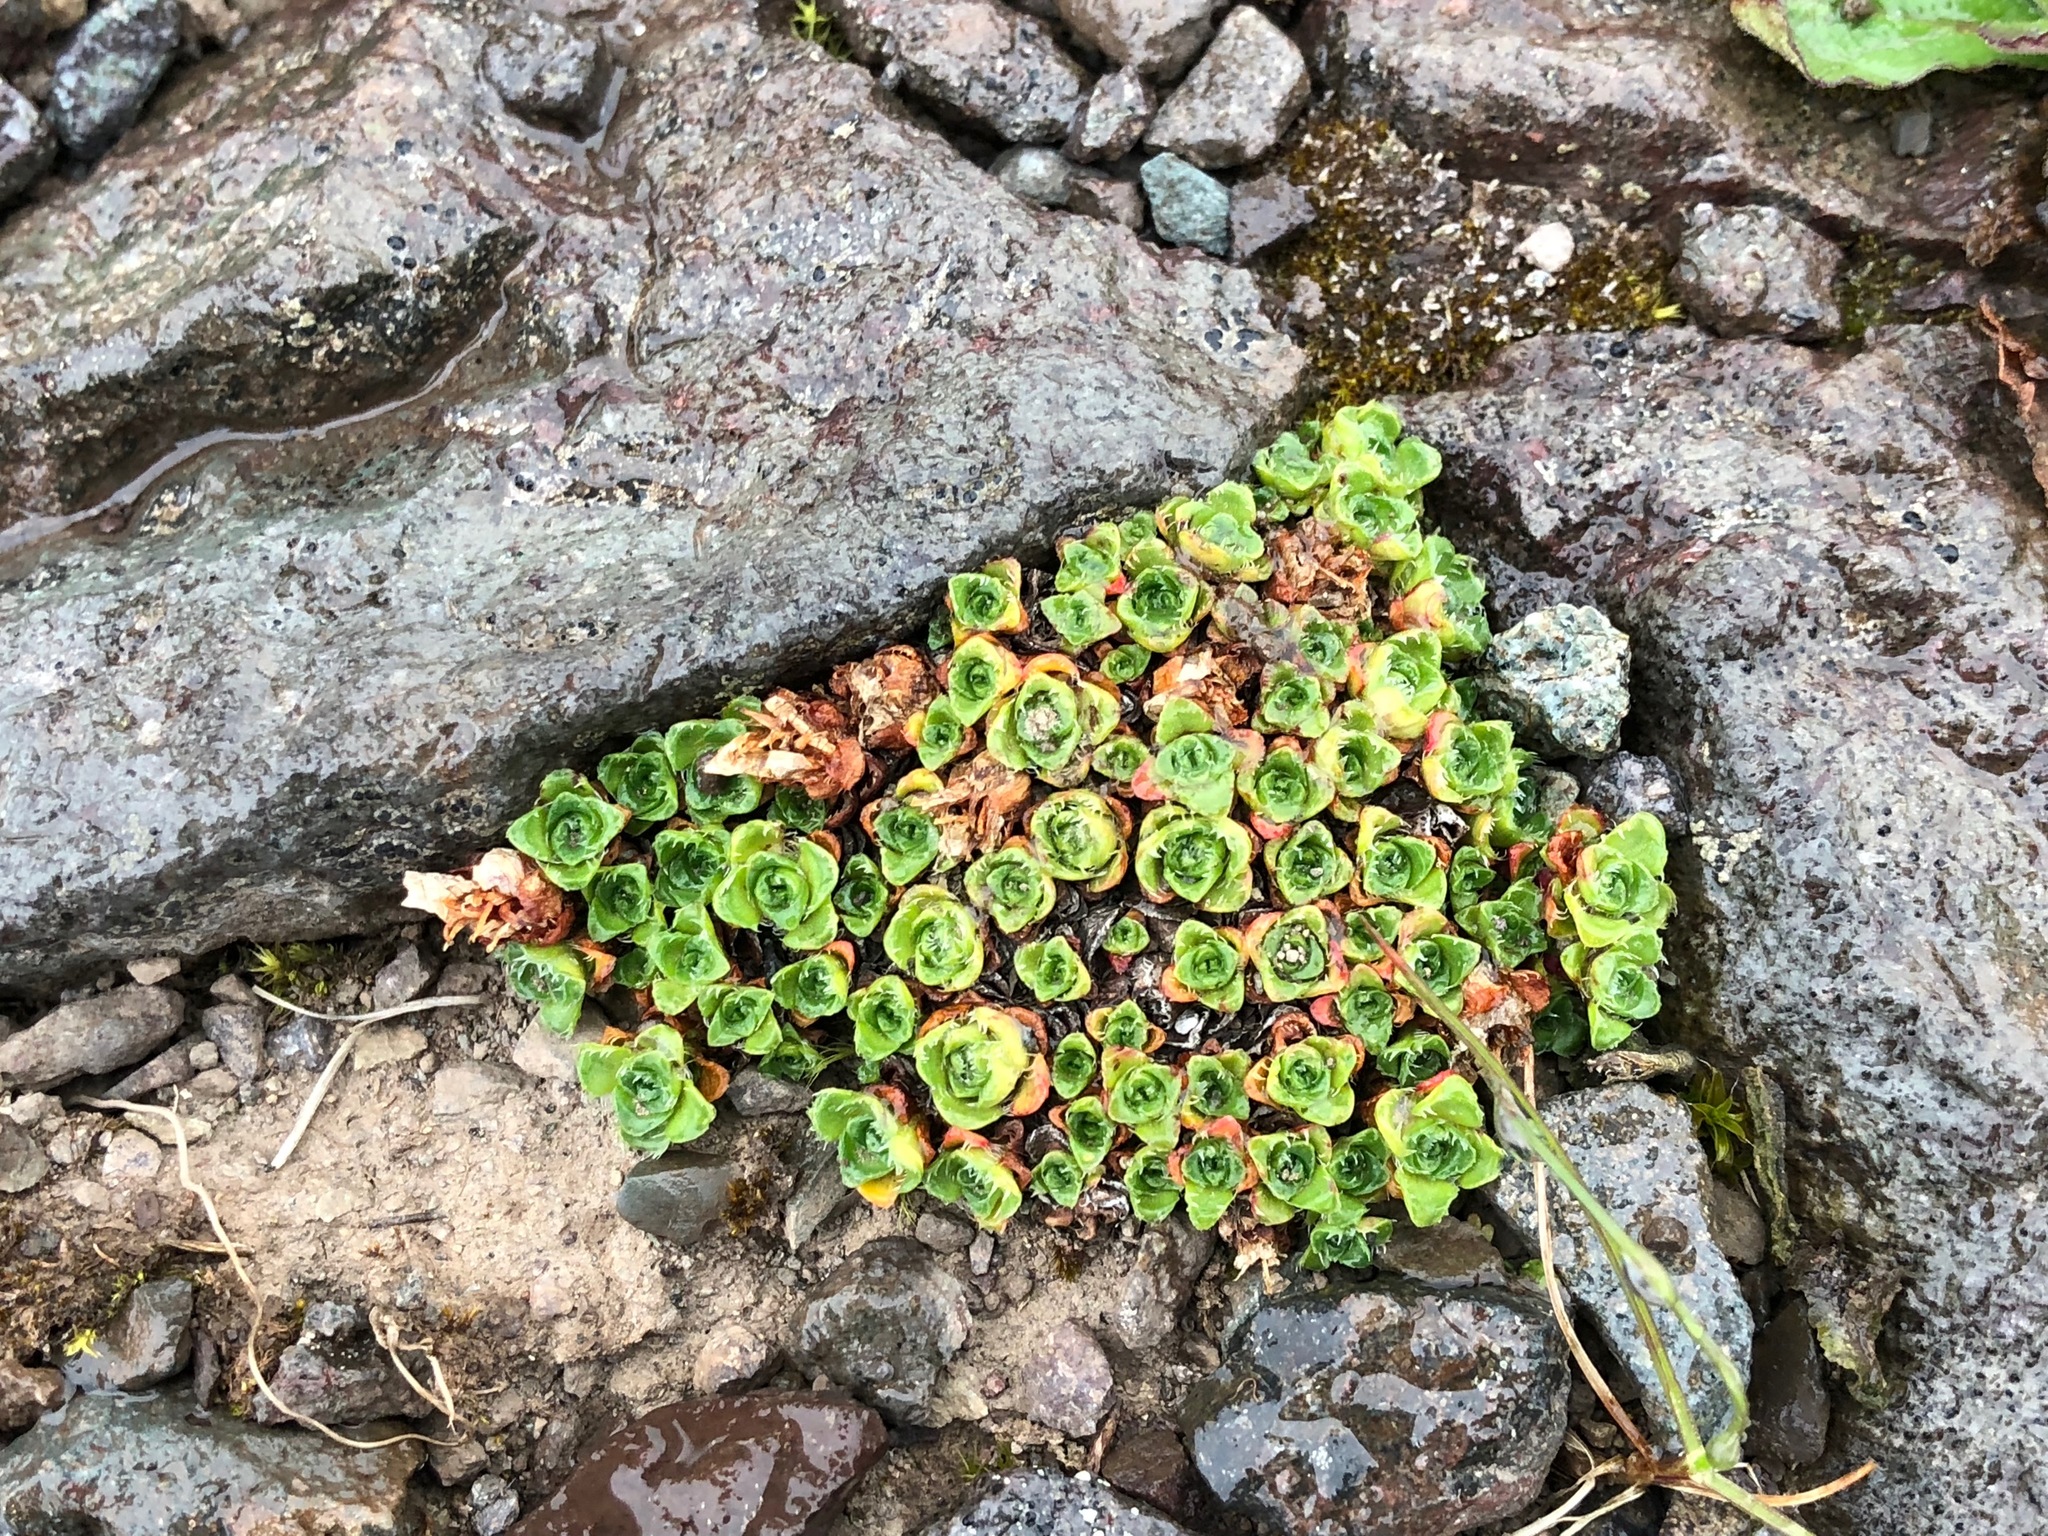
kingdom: Plantae
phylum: Tracheophyta
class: Magnoliopsida
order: Saxifragales
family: Saxifragaceae
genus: Saxifraga
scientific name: Saxifraga oppositifolia
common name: Purple saxifrage
